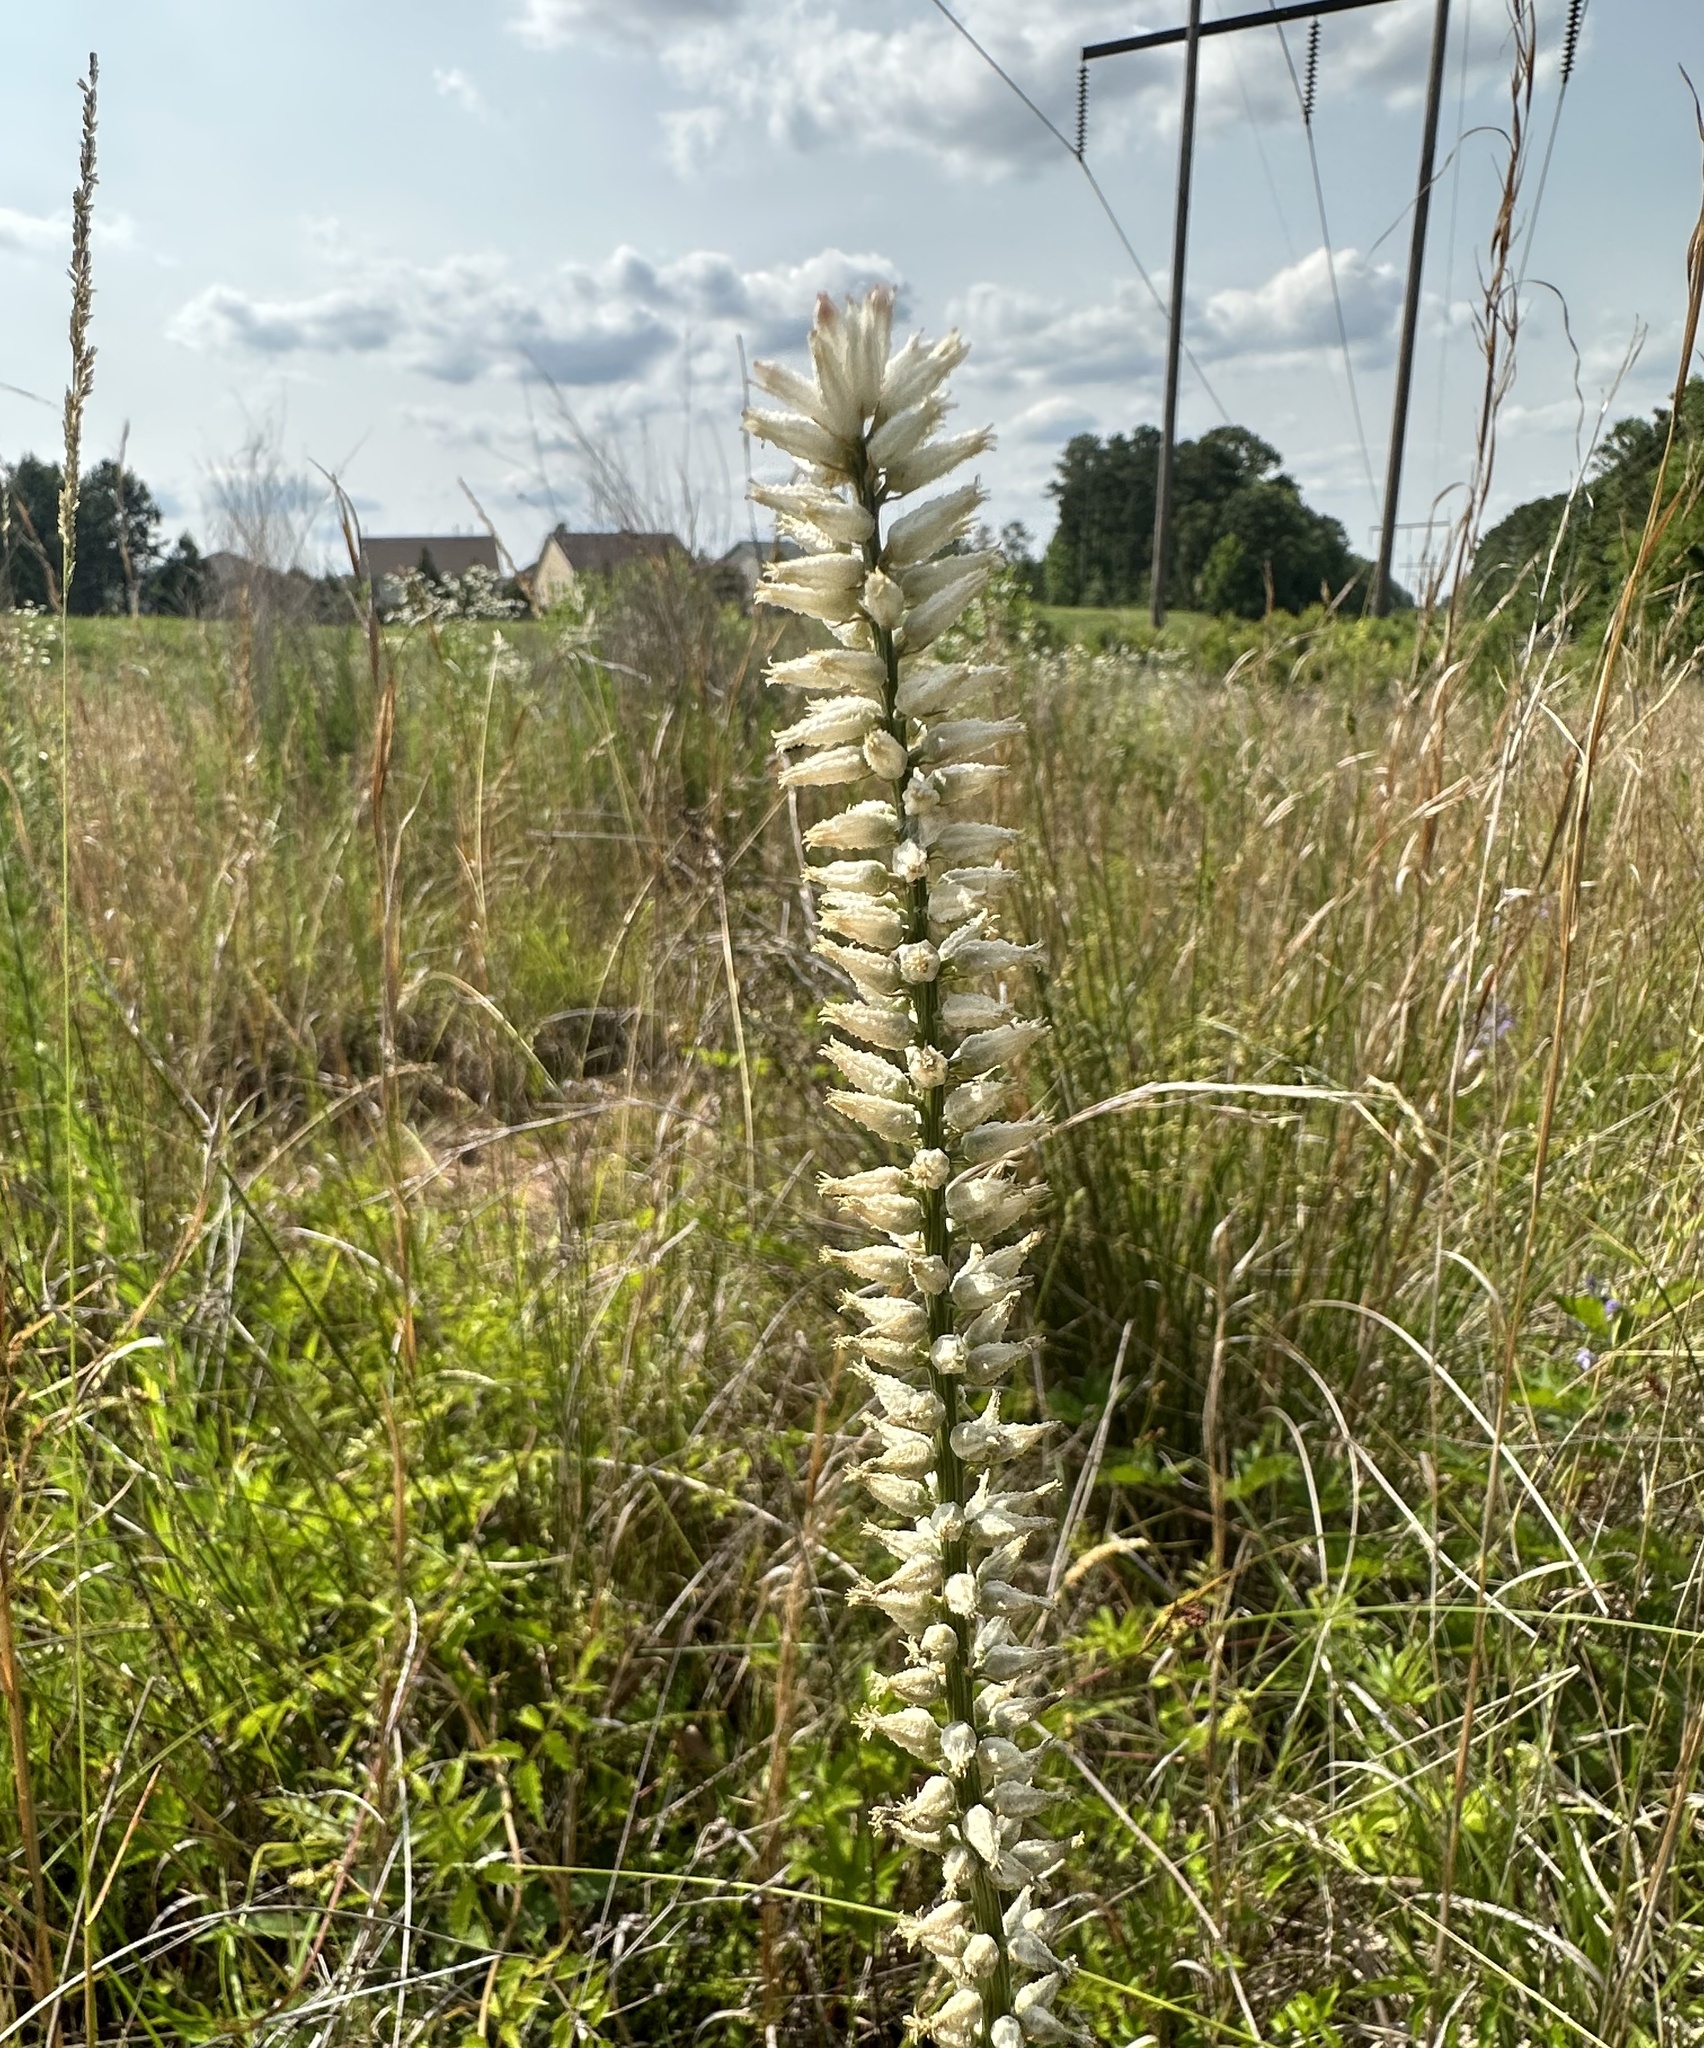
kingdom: Plantae
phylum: Tracheophyta
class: Liliopsida
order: Dioscoreales
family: Nartheciaceae
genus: Aletris
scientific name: Aletris farinosa
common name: Colicroot
